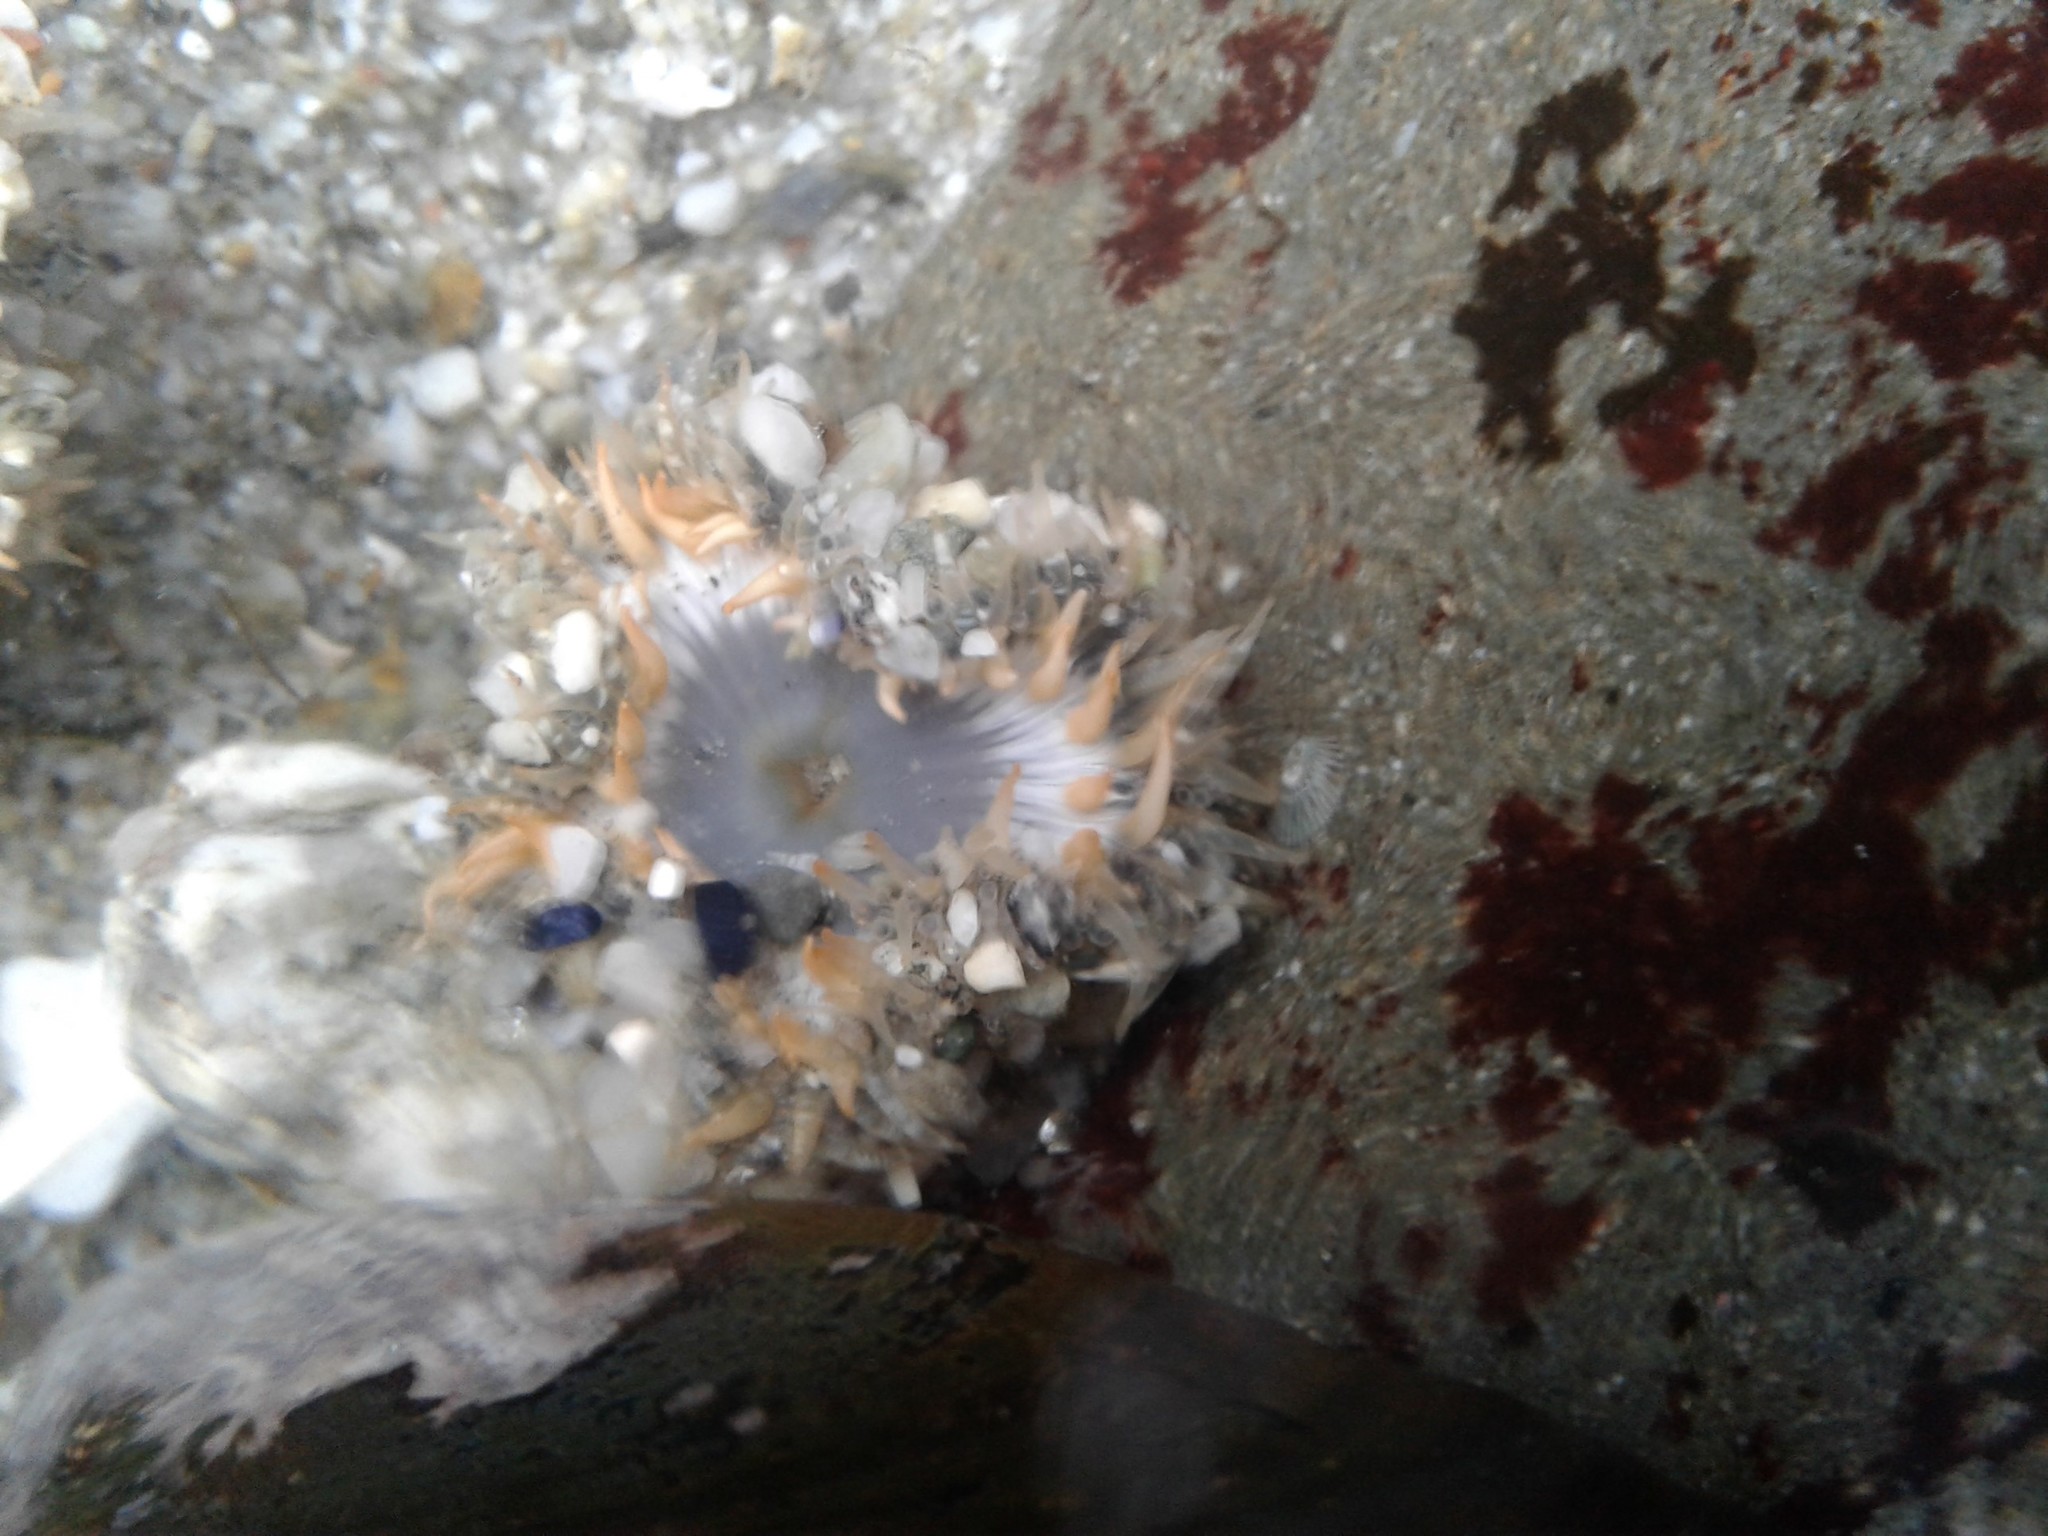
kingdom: Animalia
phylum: Cnidaria
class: Anthozoa
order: Actiniaria
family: Actiniidae
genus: Oulactis
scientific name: Oulactis magna
